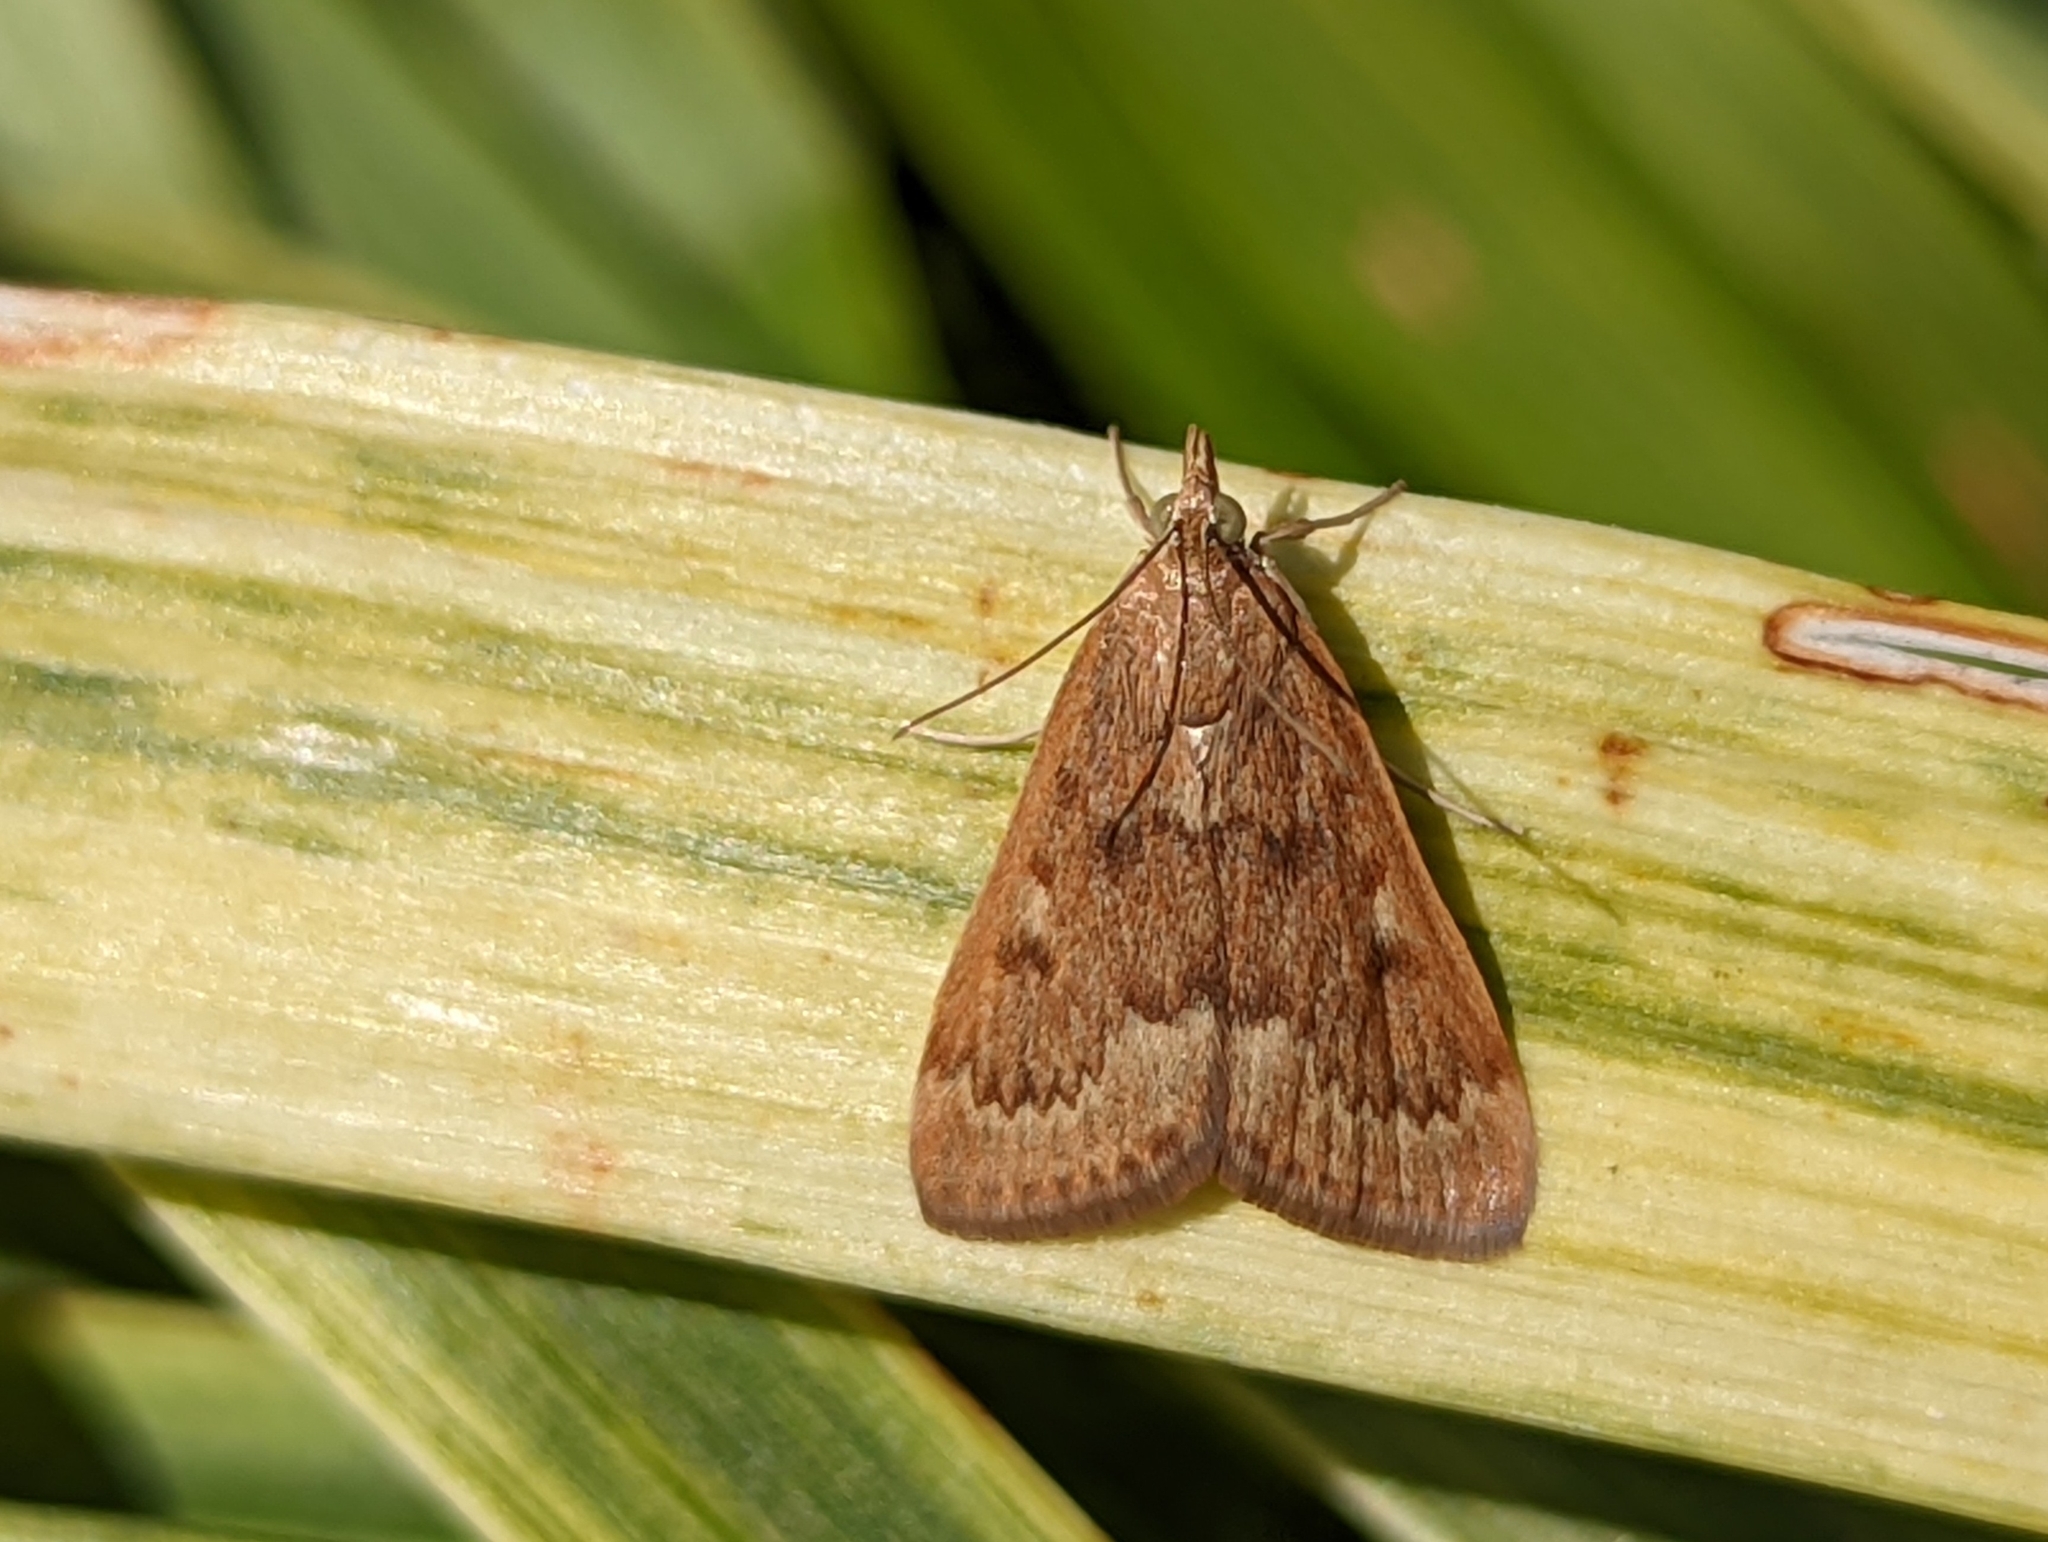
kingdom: Animalia
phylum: Arthropoda
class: Insecta
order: Lepidoptera
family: Crambidae
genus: Achyra
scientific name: Achyra rantalis
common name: Garden webworm
